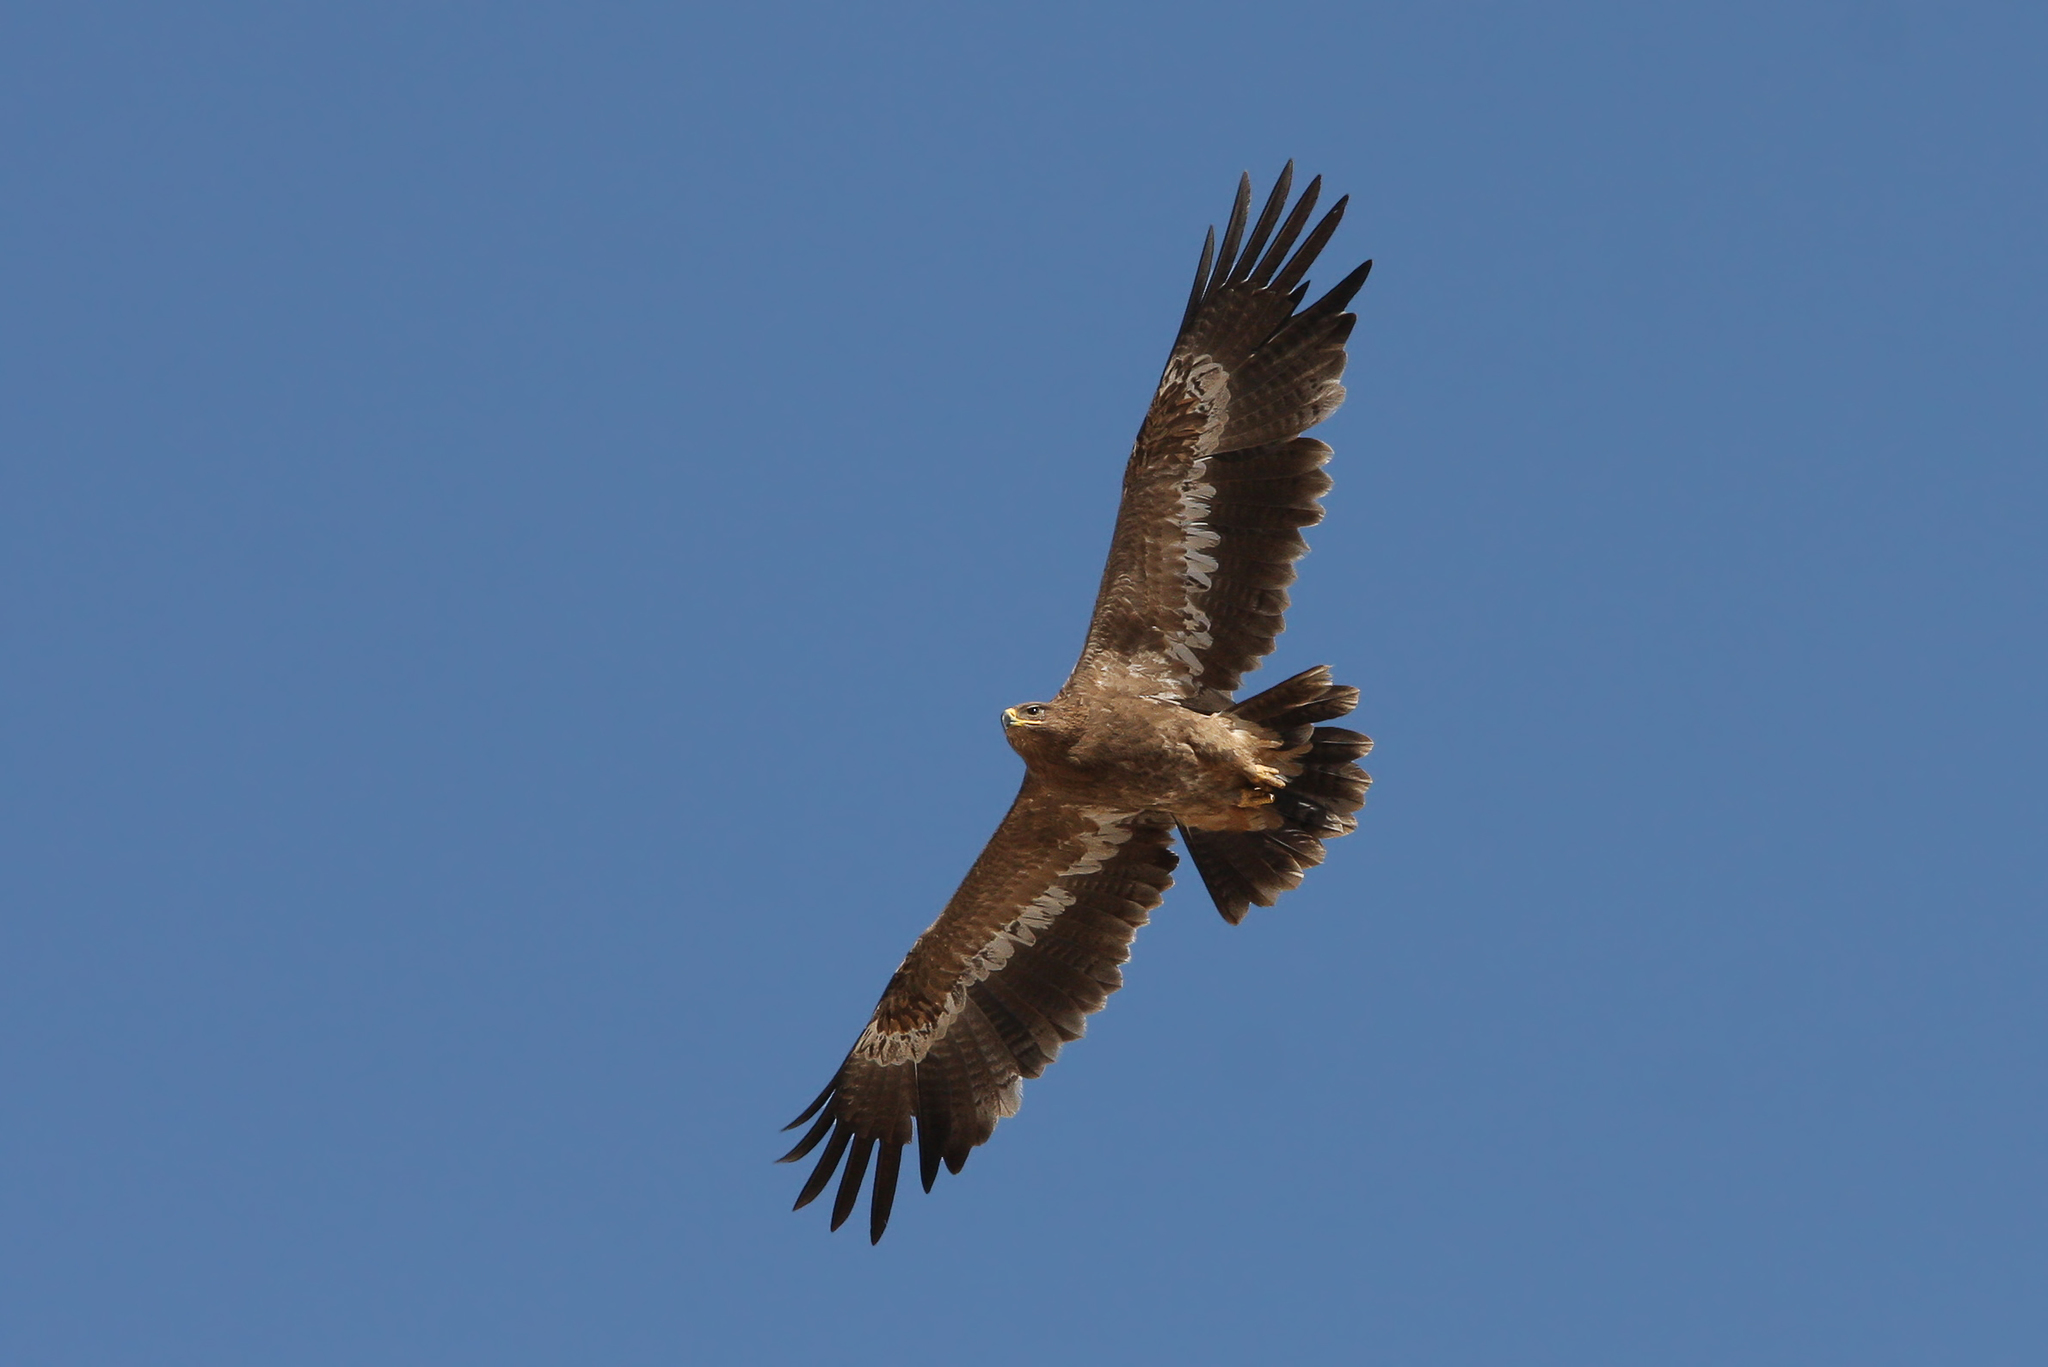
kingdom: Animalia
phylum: Chordata
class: Aves
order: Accipitriformes
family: Accipitridae
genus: Aquila
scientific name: Aquila nipalensis
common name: Steppe eagle
